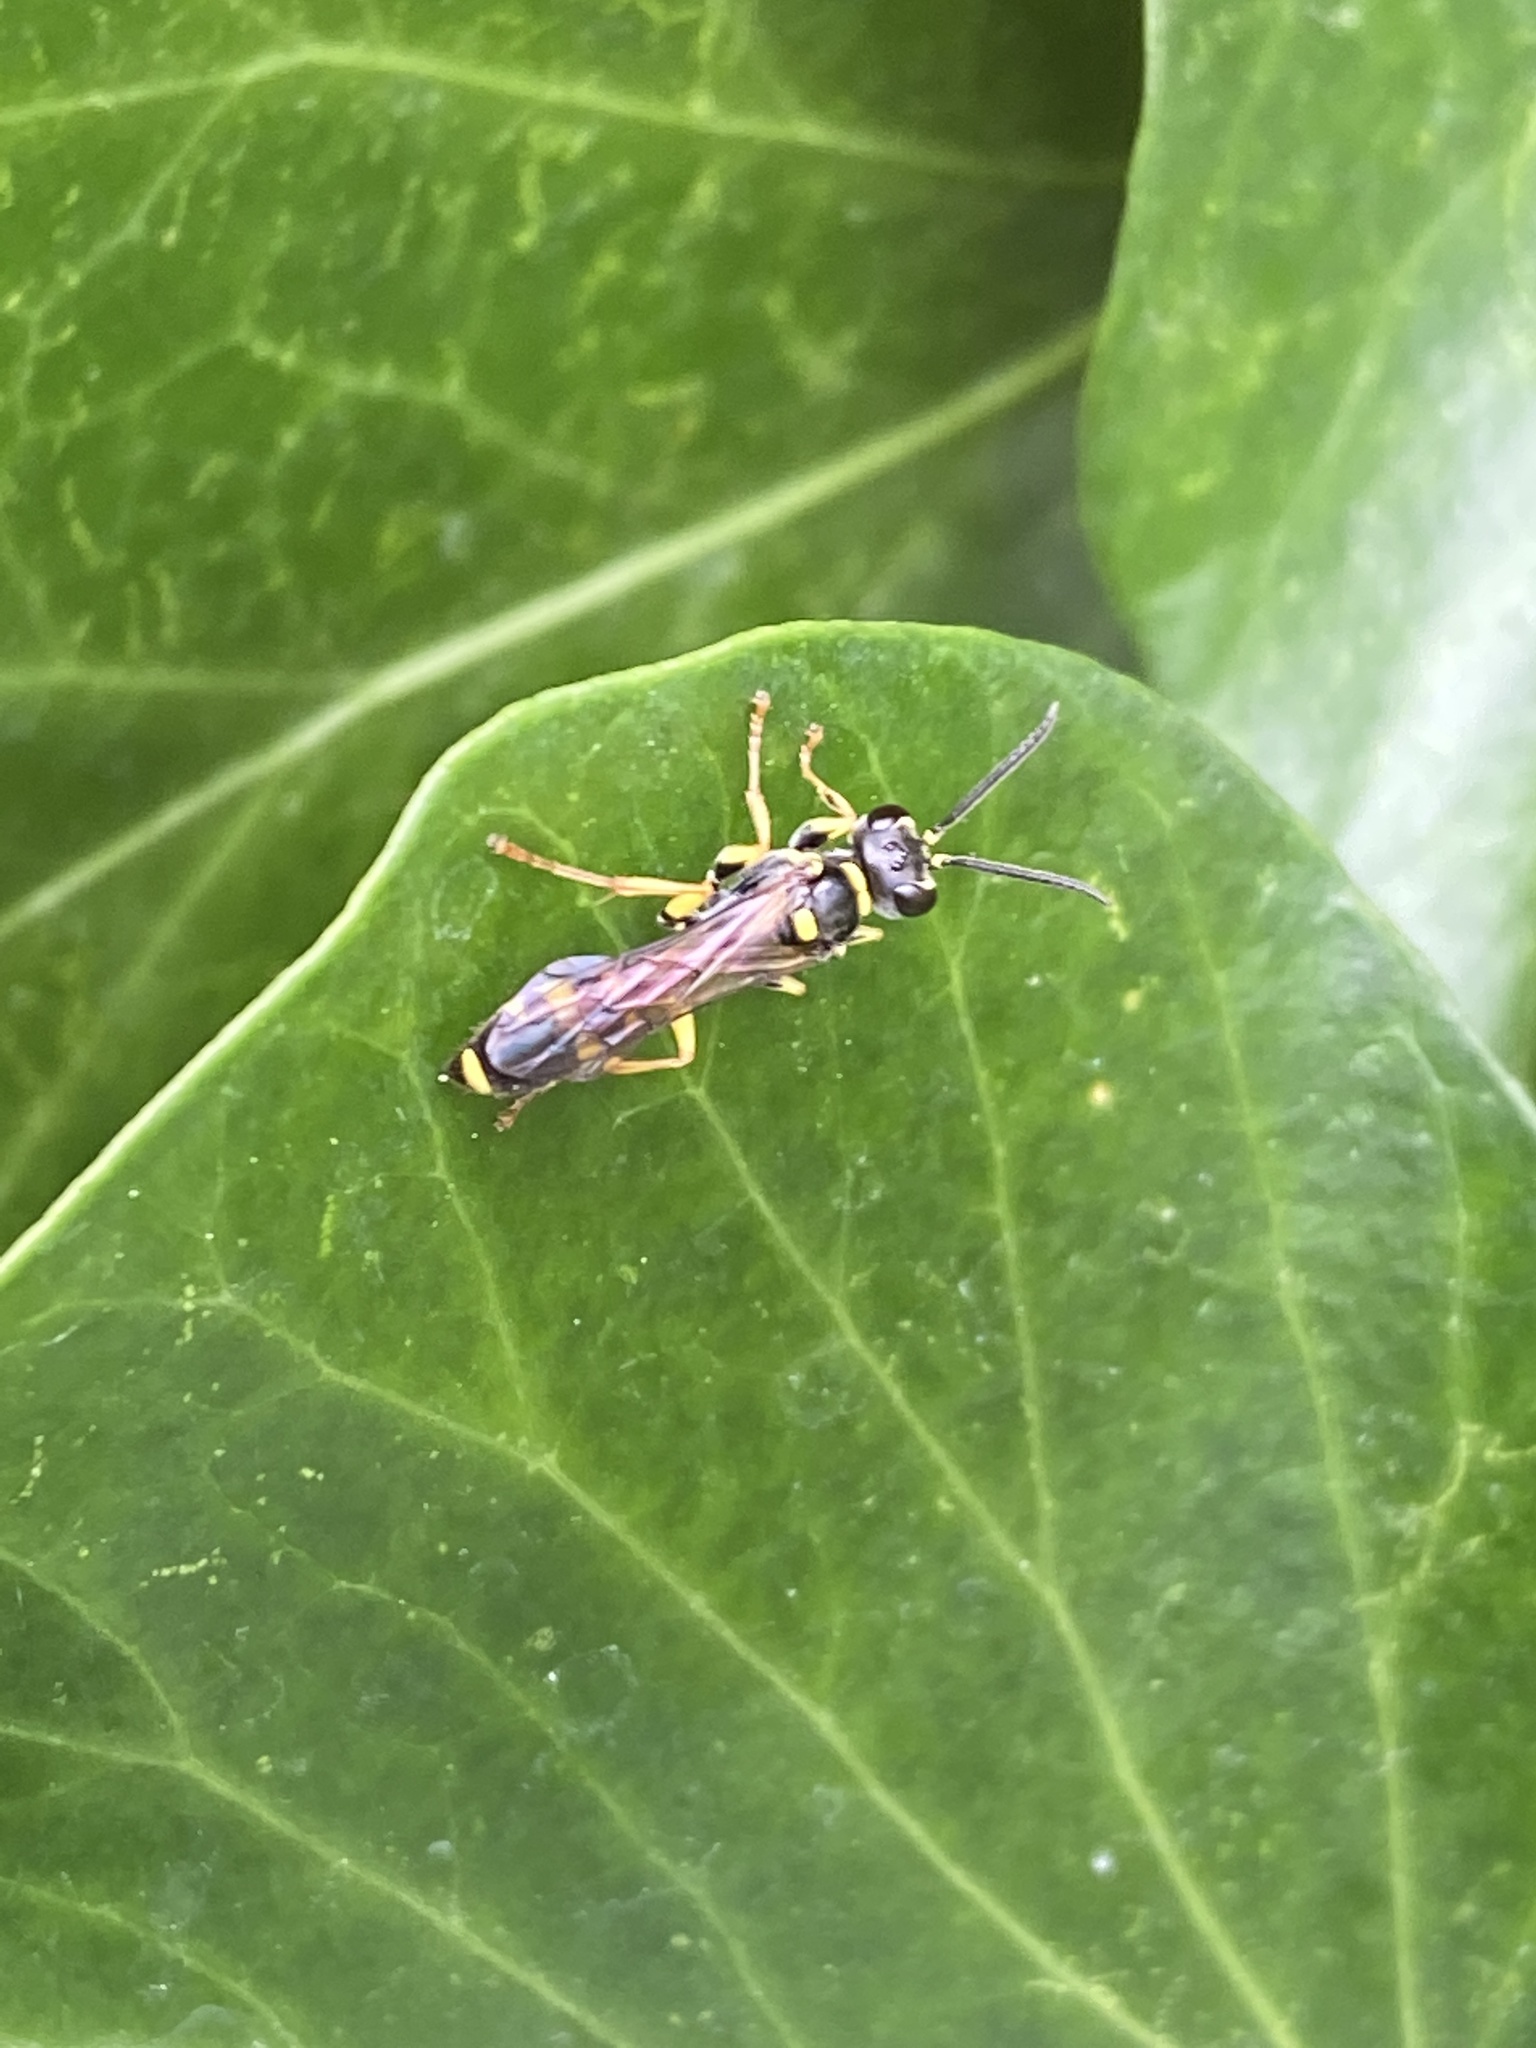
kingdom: Animalia
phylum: Arthropoda
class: Insecta
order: Hymenoptera
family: Crabronidae
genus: Mellinus
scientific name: Mellinus arvensis
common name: Field digger wasp
